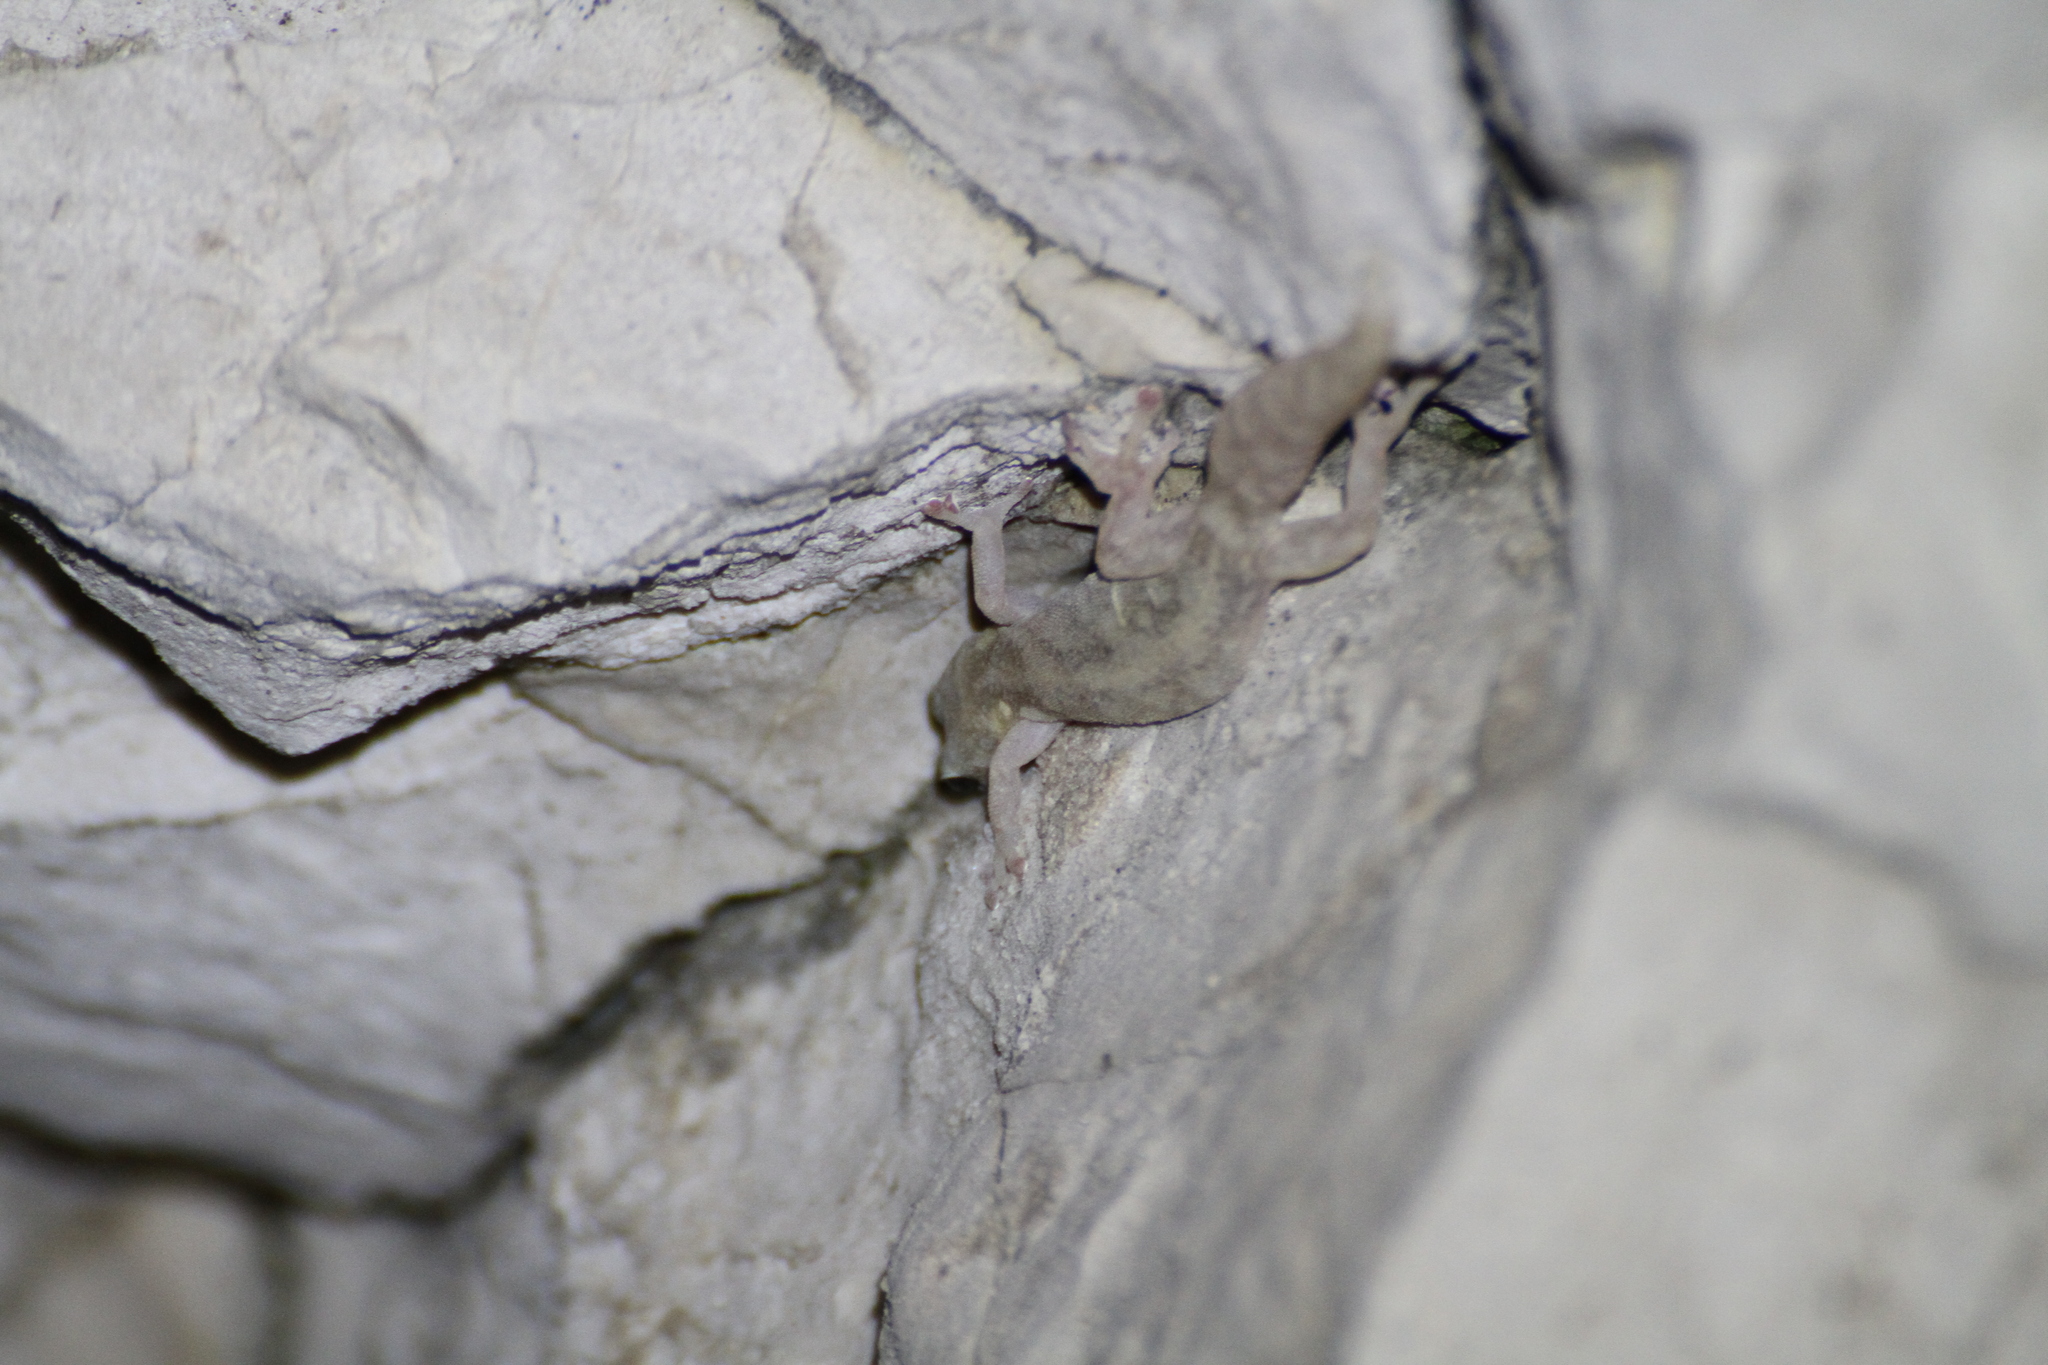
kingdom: Animalia
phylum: Chordata
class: Squamata
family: Sphaerodactylidae
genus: Euleptes
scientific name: Euleptes europaea
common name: English common name not available
